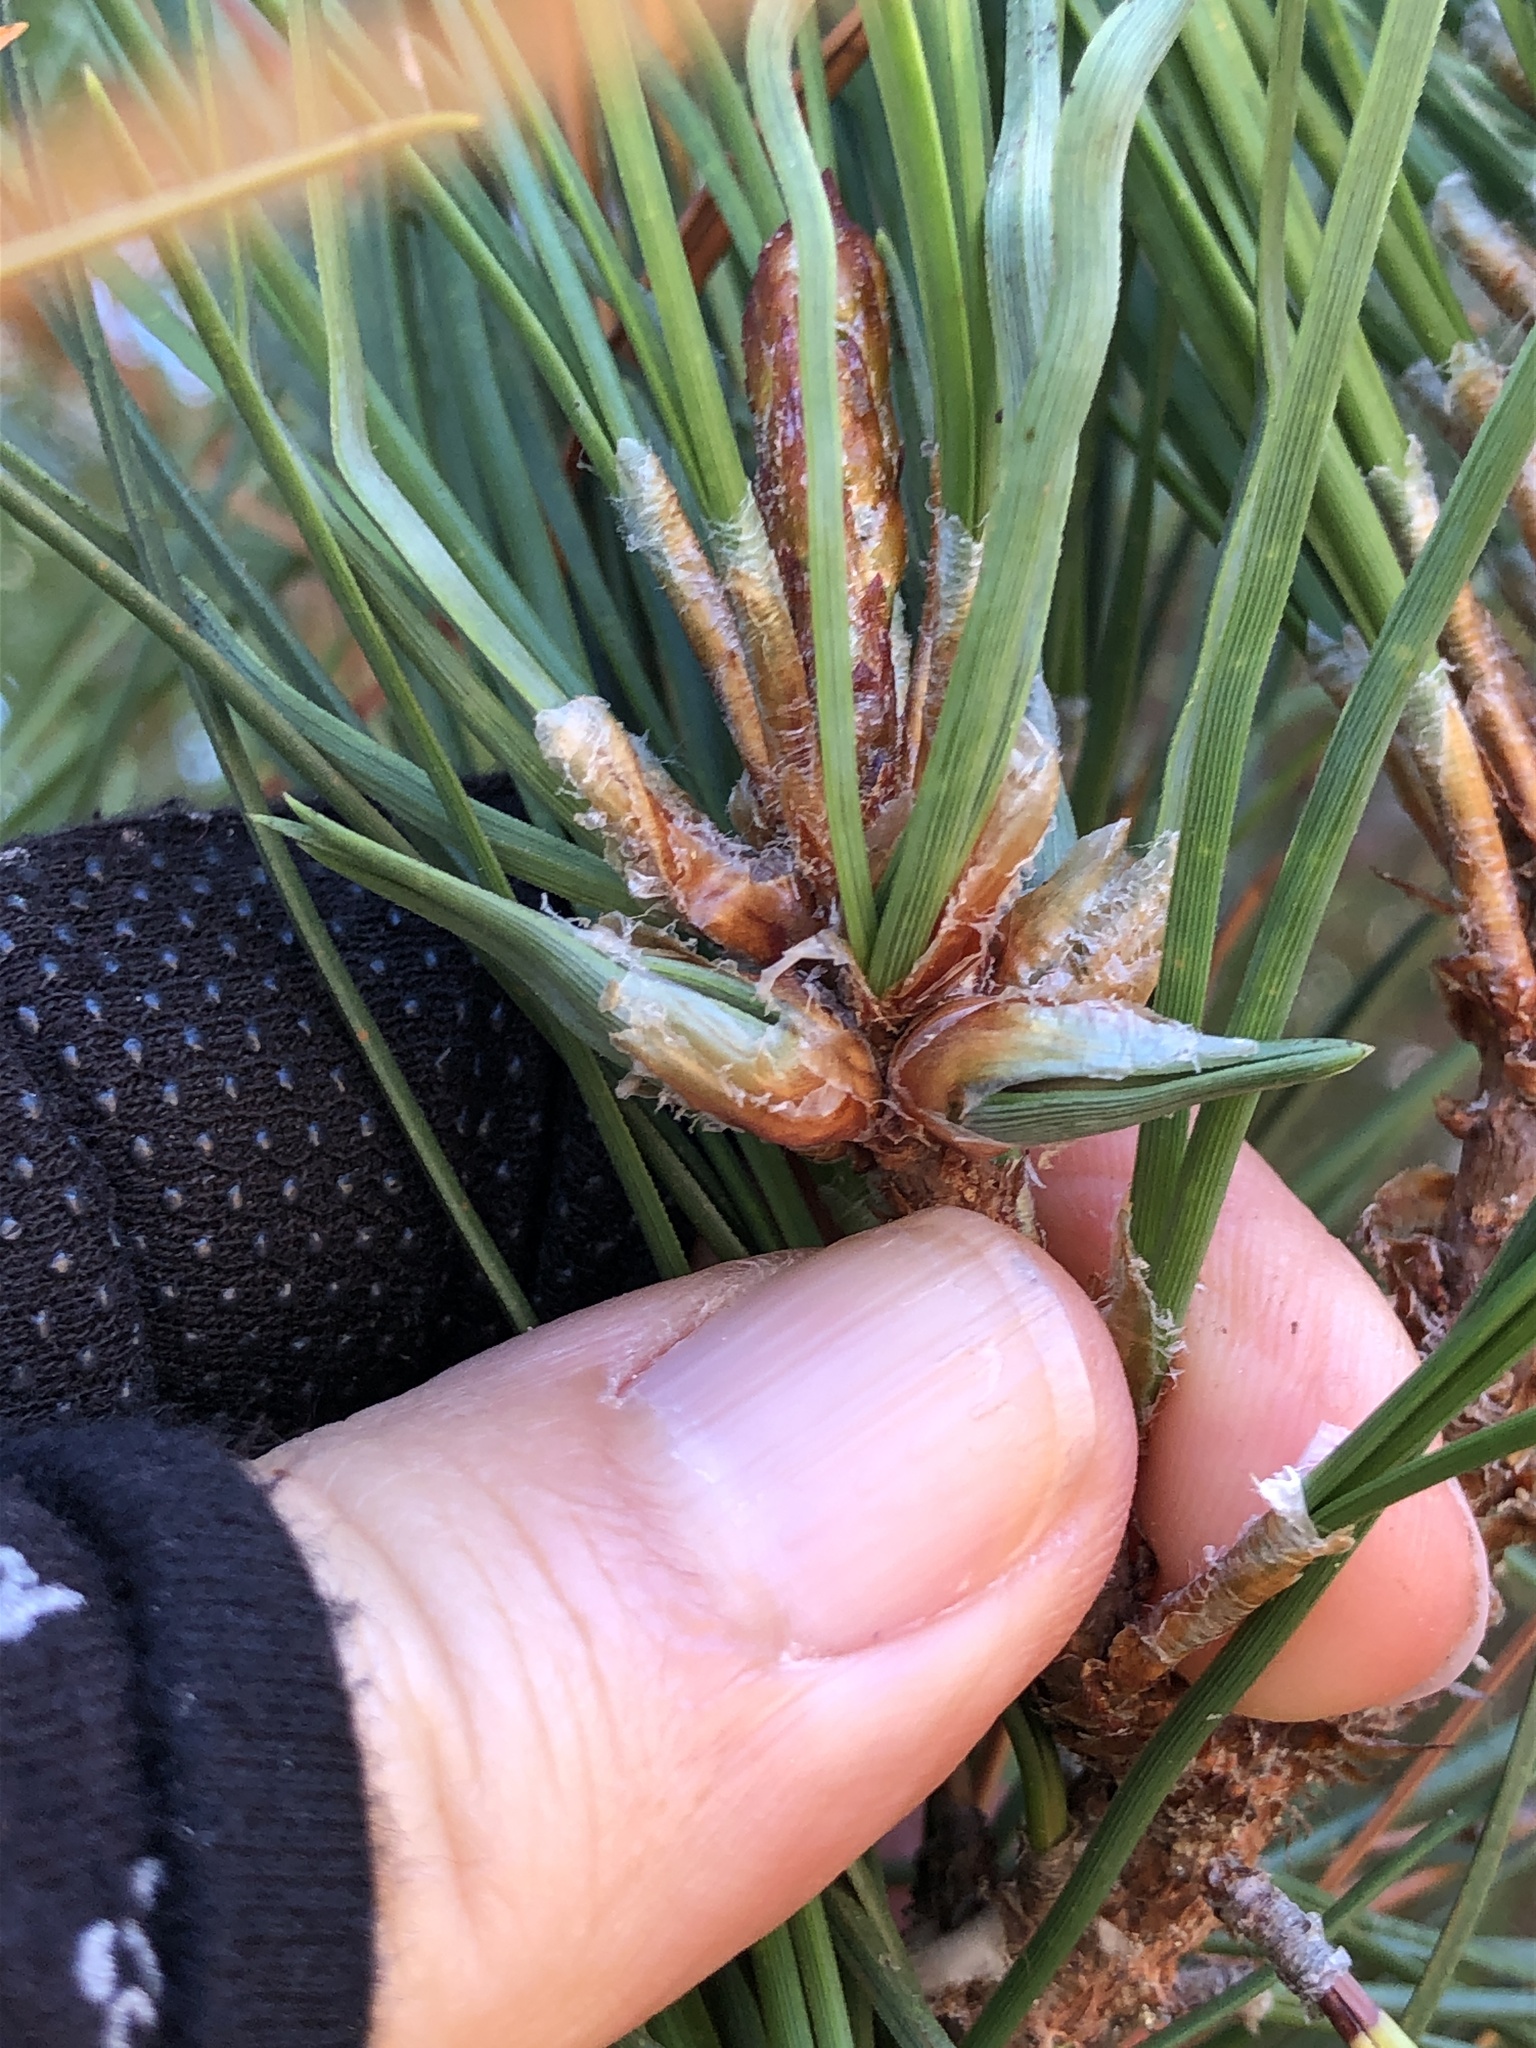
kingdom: Animalia
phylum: Arthropoda
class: Insecta
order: Diptera
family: Cecidomyiidae
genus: Thecodiplosis
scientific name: Thecodiplosis piniradiatae
